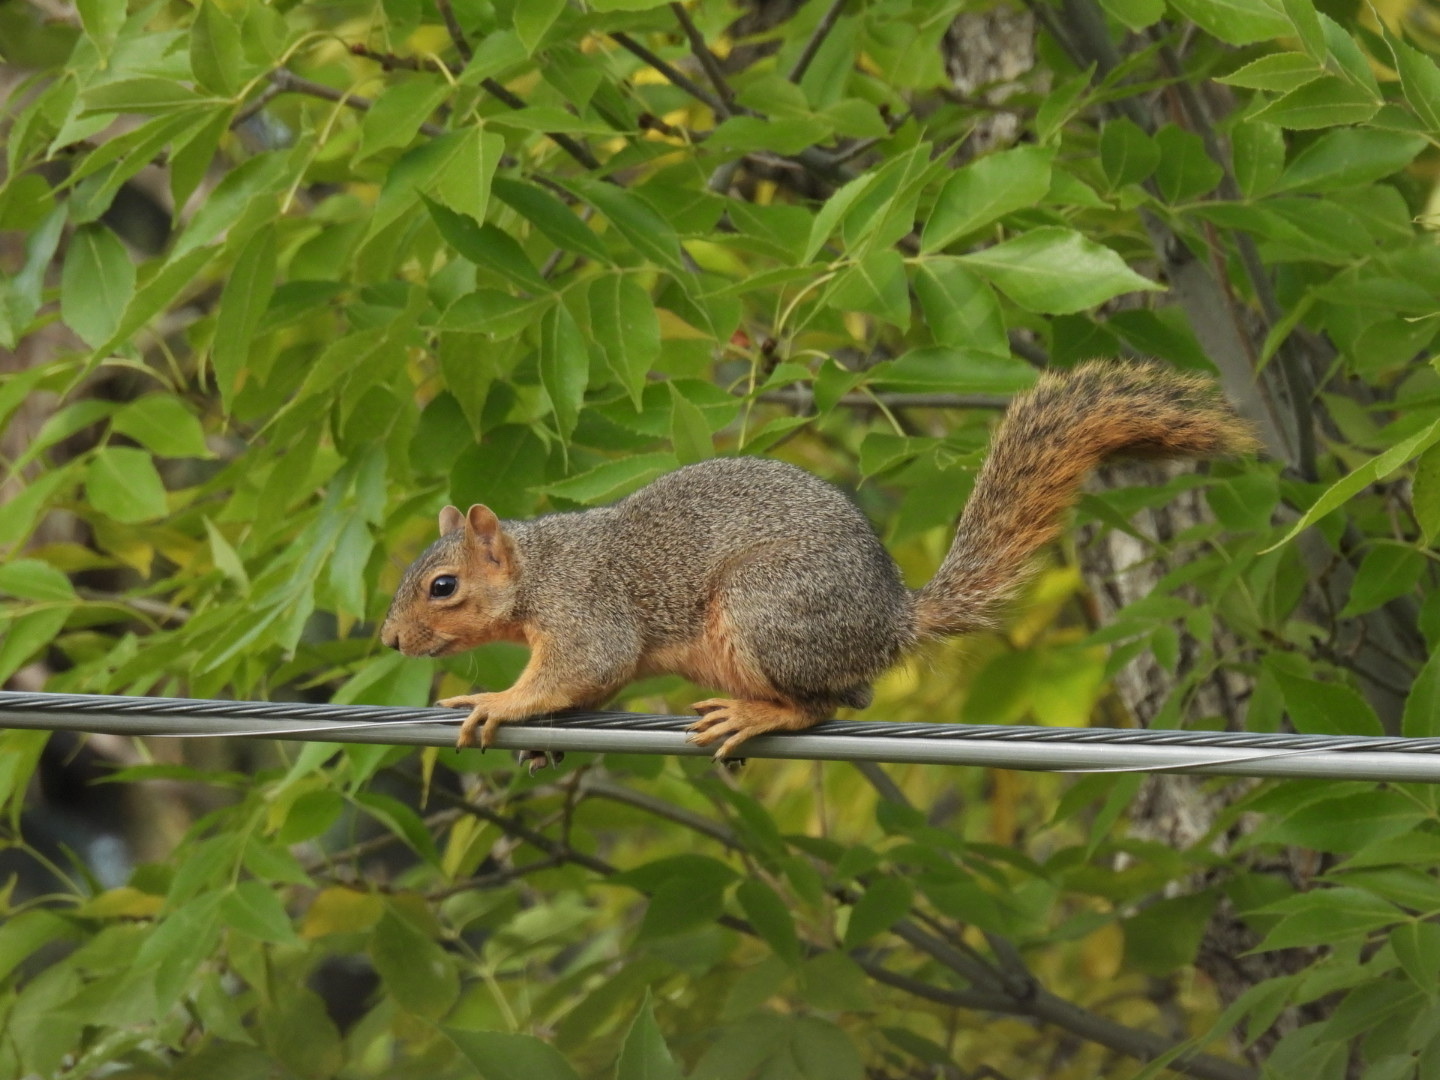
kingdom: Animalia
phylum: Chordata
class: Mammalia
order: Rodentia
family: Sciuridae
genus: Sciurus
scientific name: Sciurus niger
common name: Fox squirrel
